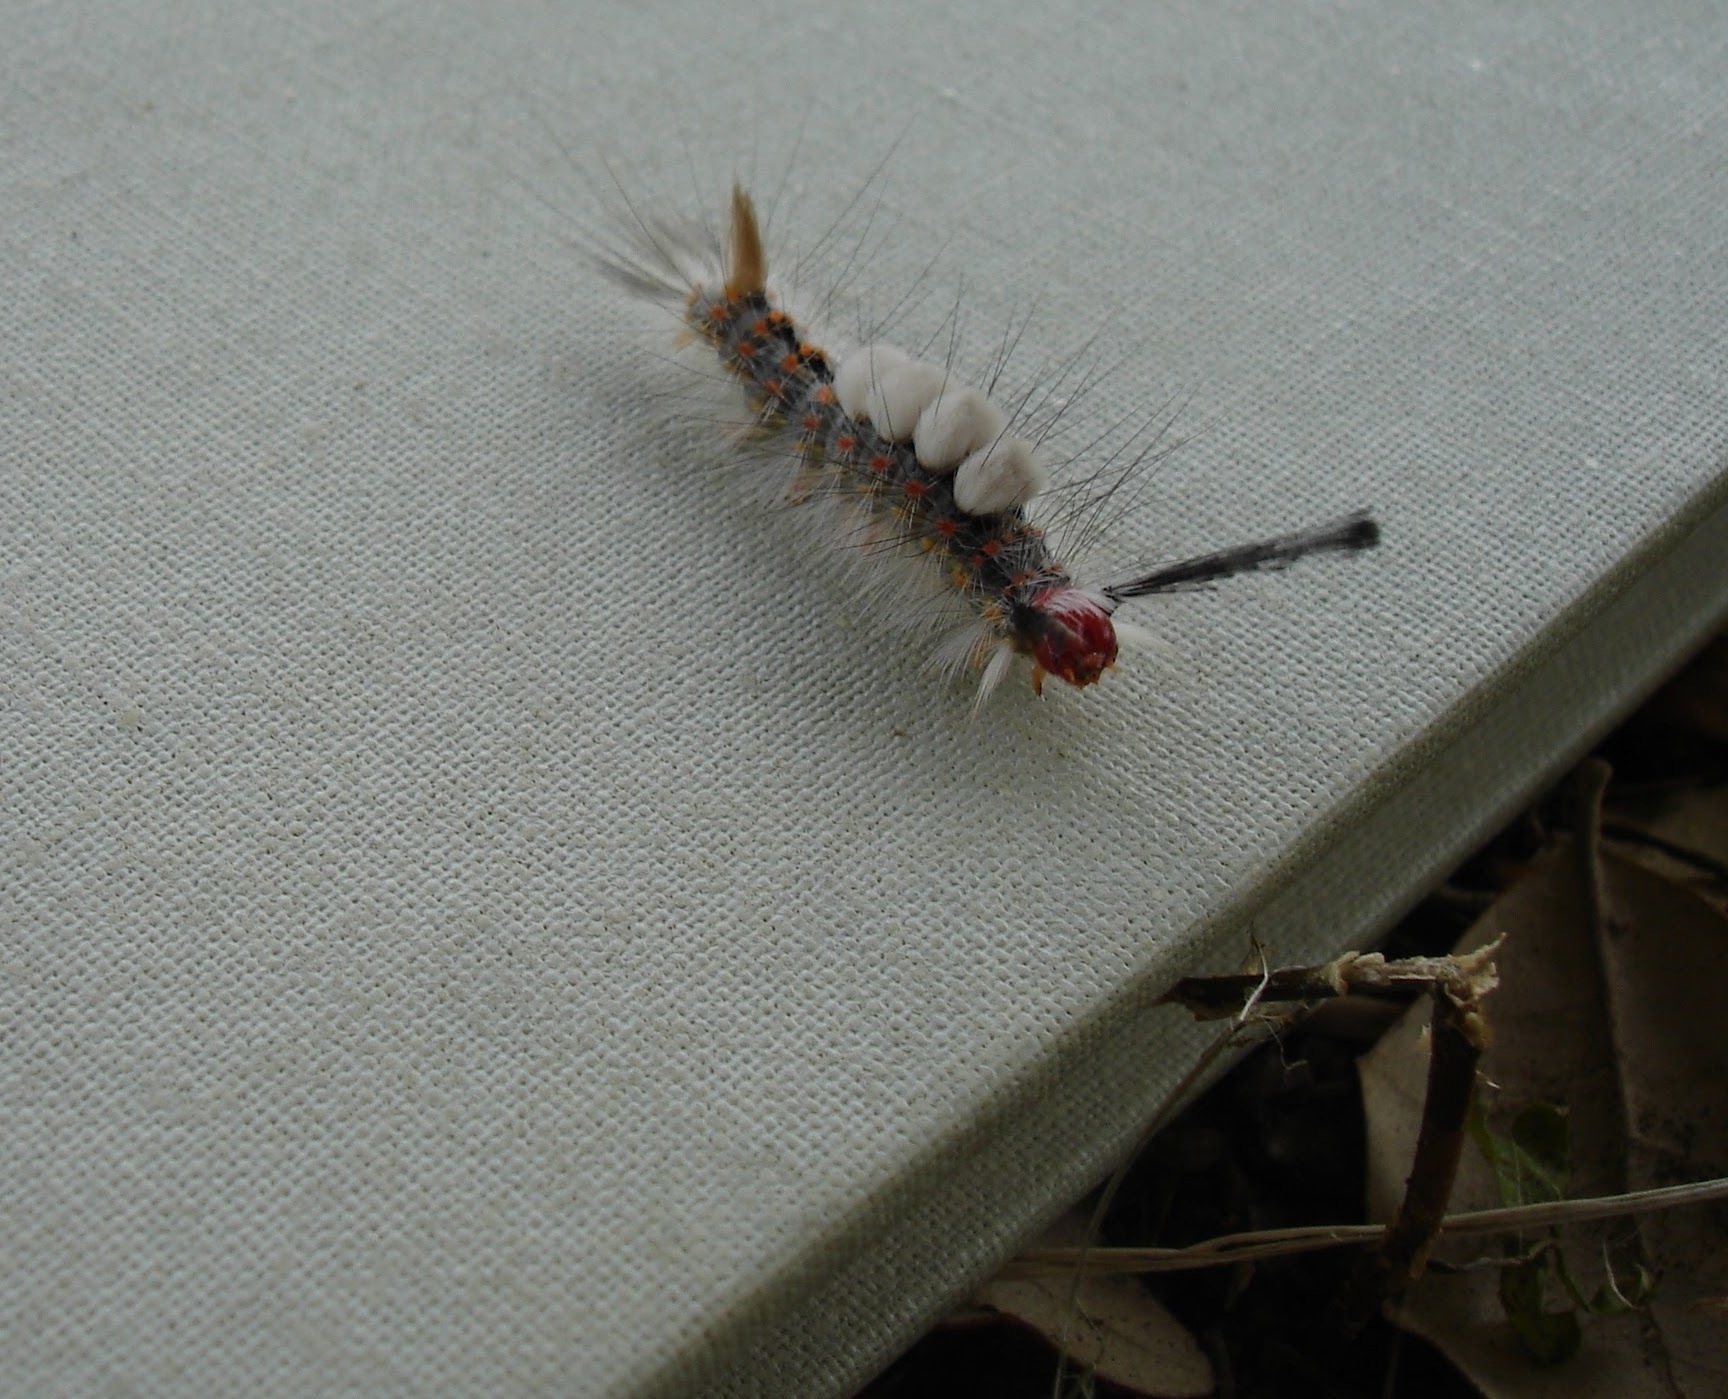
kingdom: Animalia
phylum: Arthropoda
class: Insecta
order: Lepidoptera
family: Erebidae
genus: Orgyia
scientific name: Orgyia detrita
